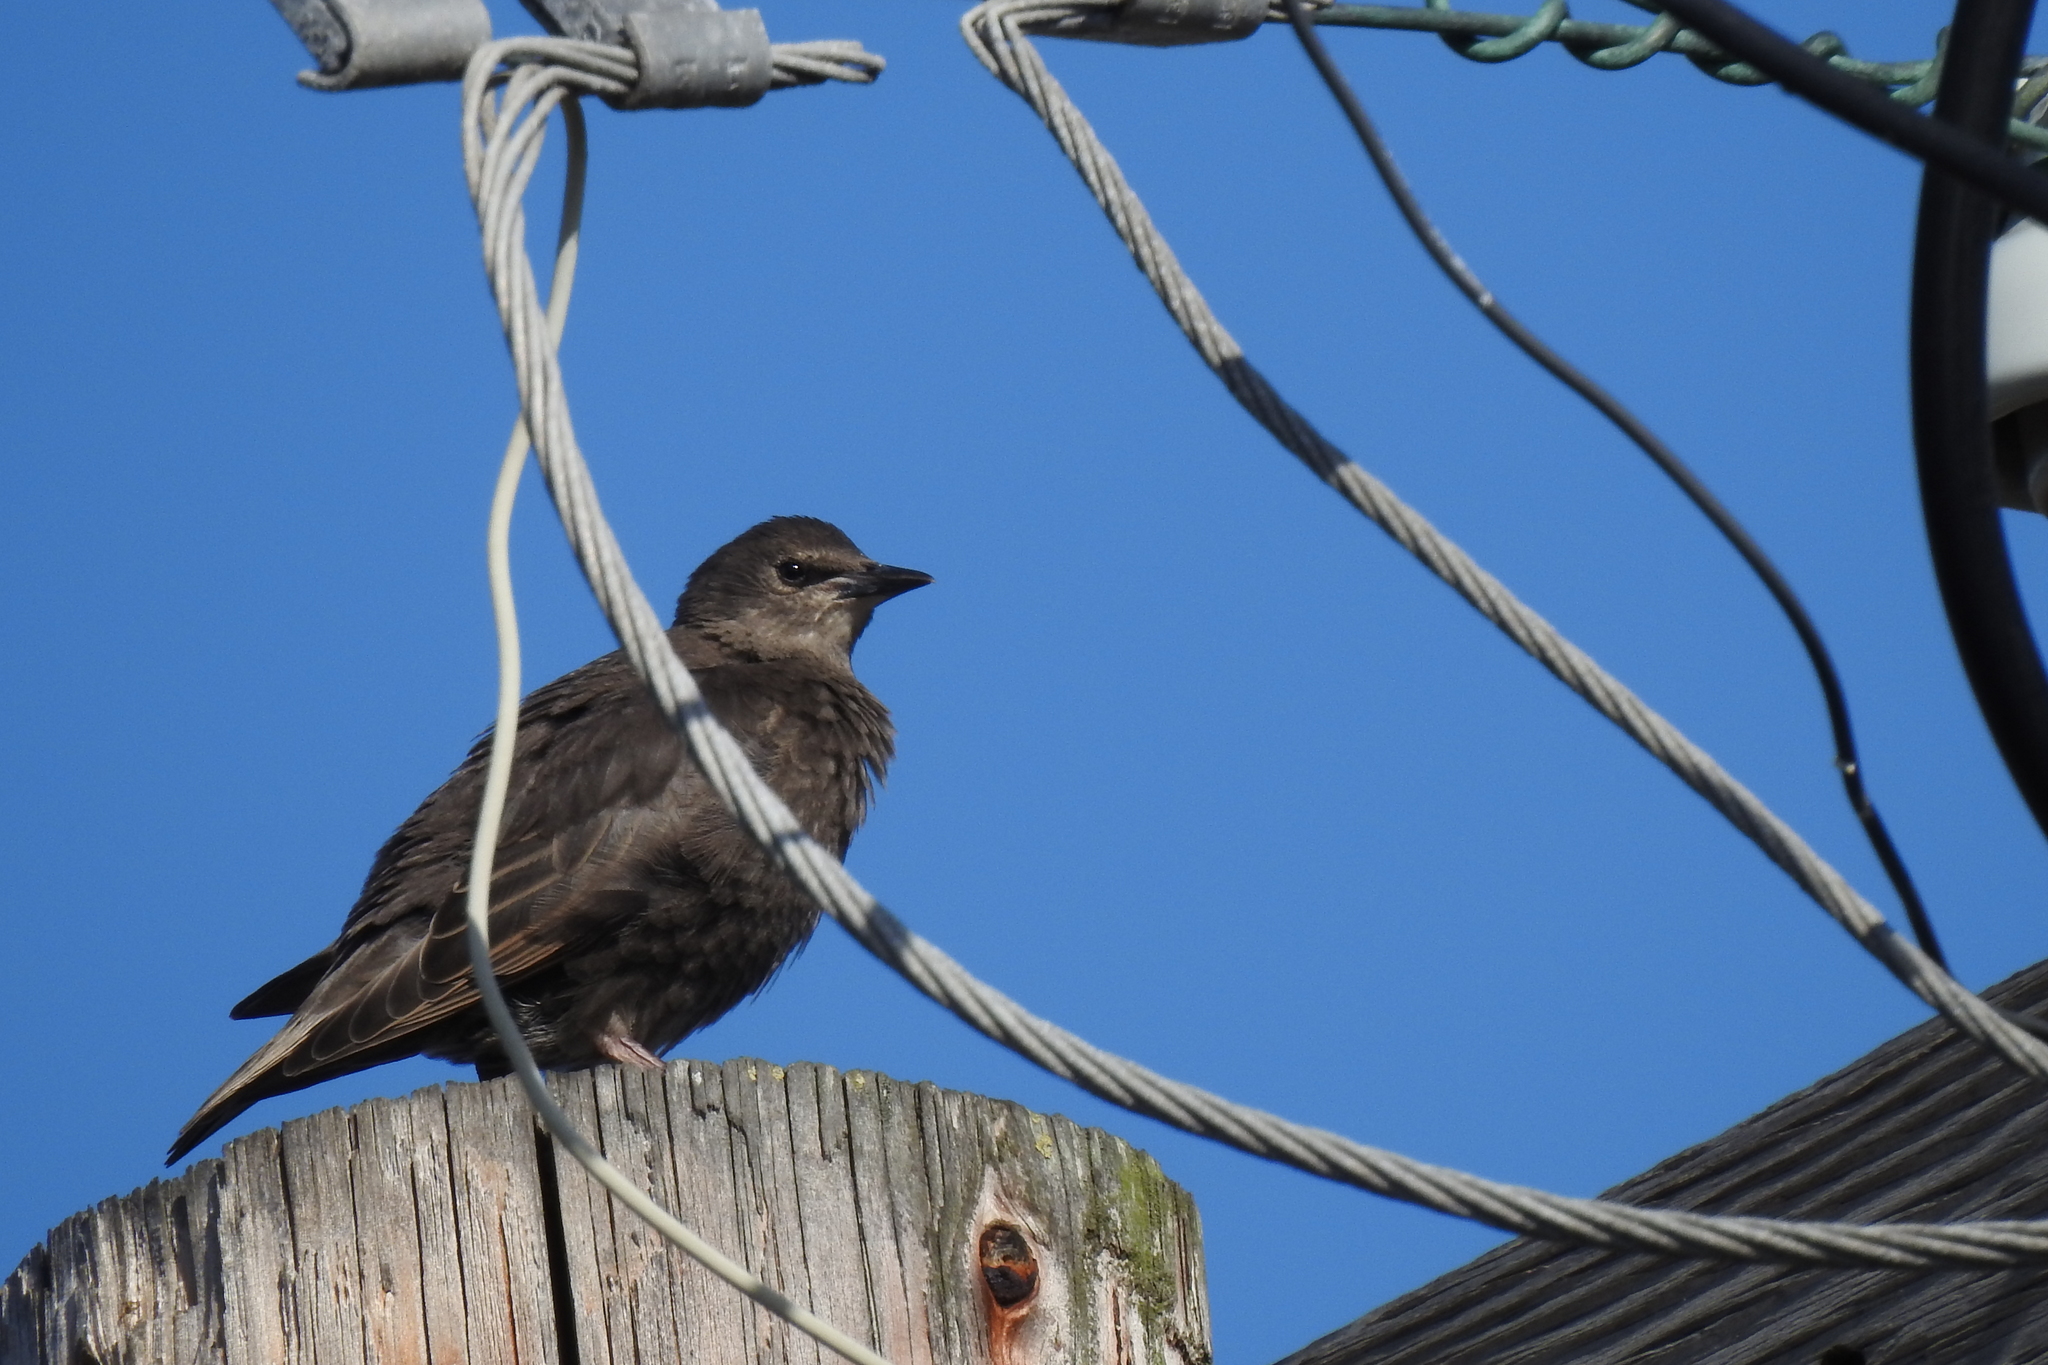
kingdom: Animalia
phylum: Chordata
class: Aves
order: Passeriformes
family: Sturnidae
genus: Sturnus
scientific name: Sturnus vulgaris
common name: Common starling
